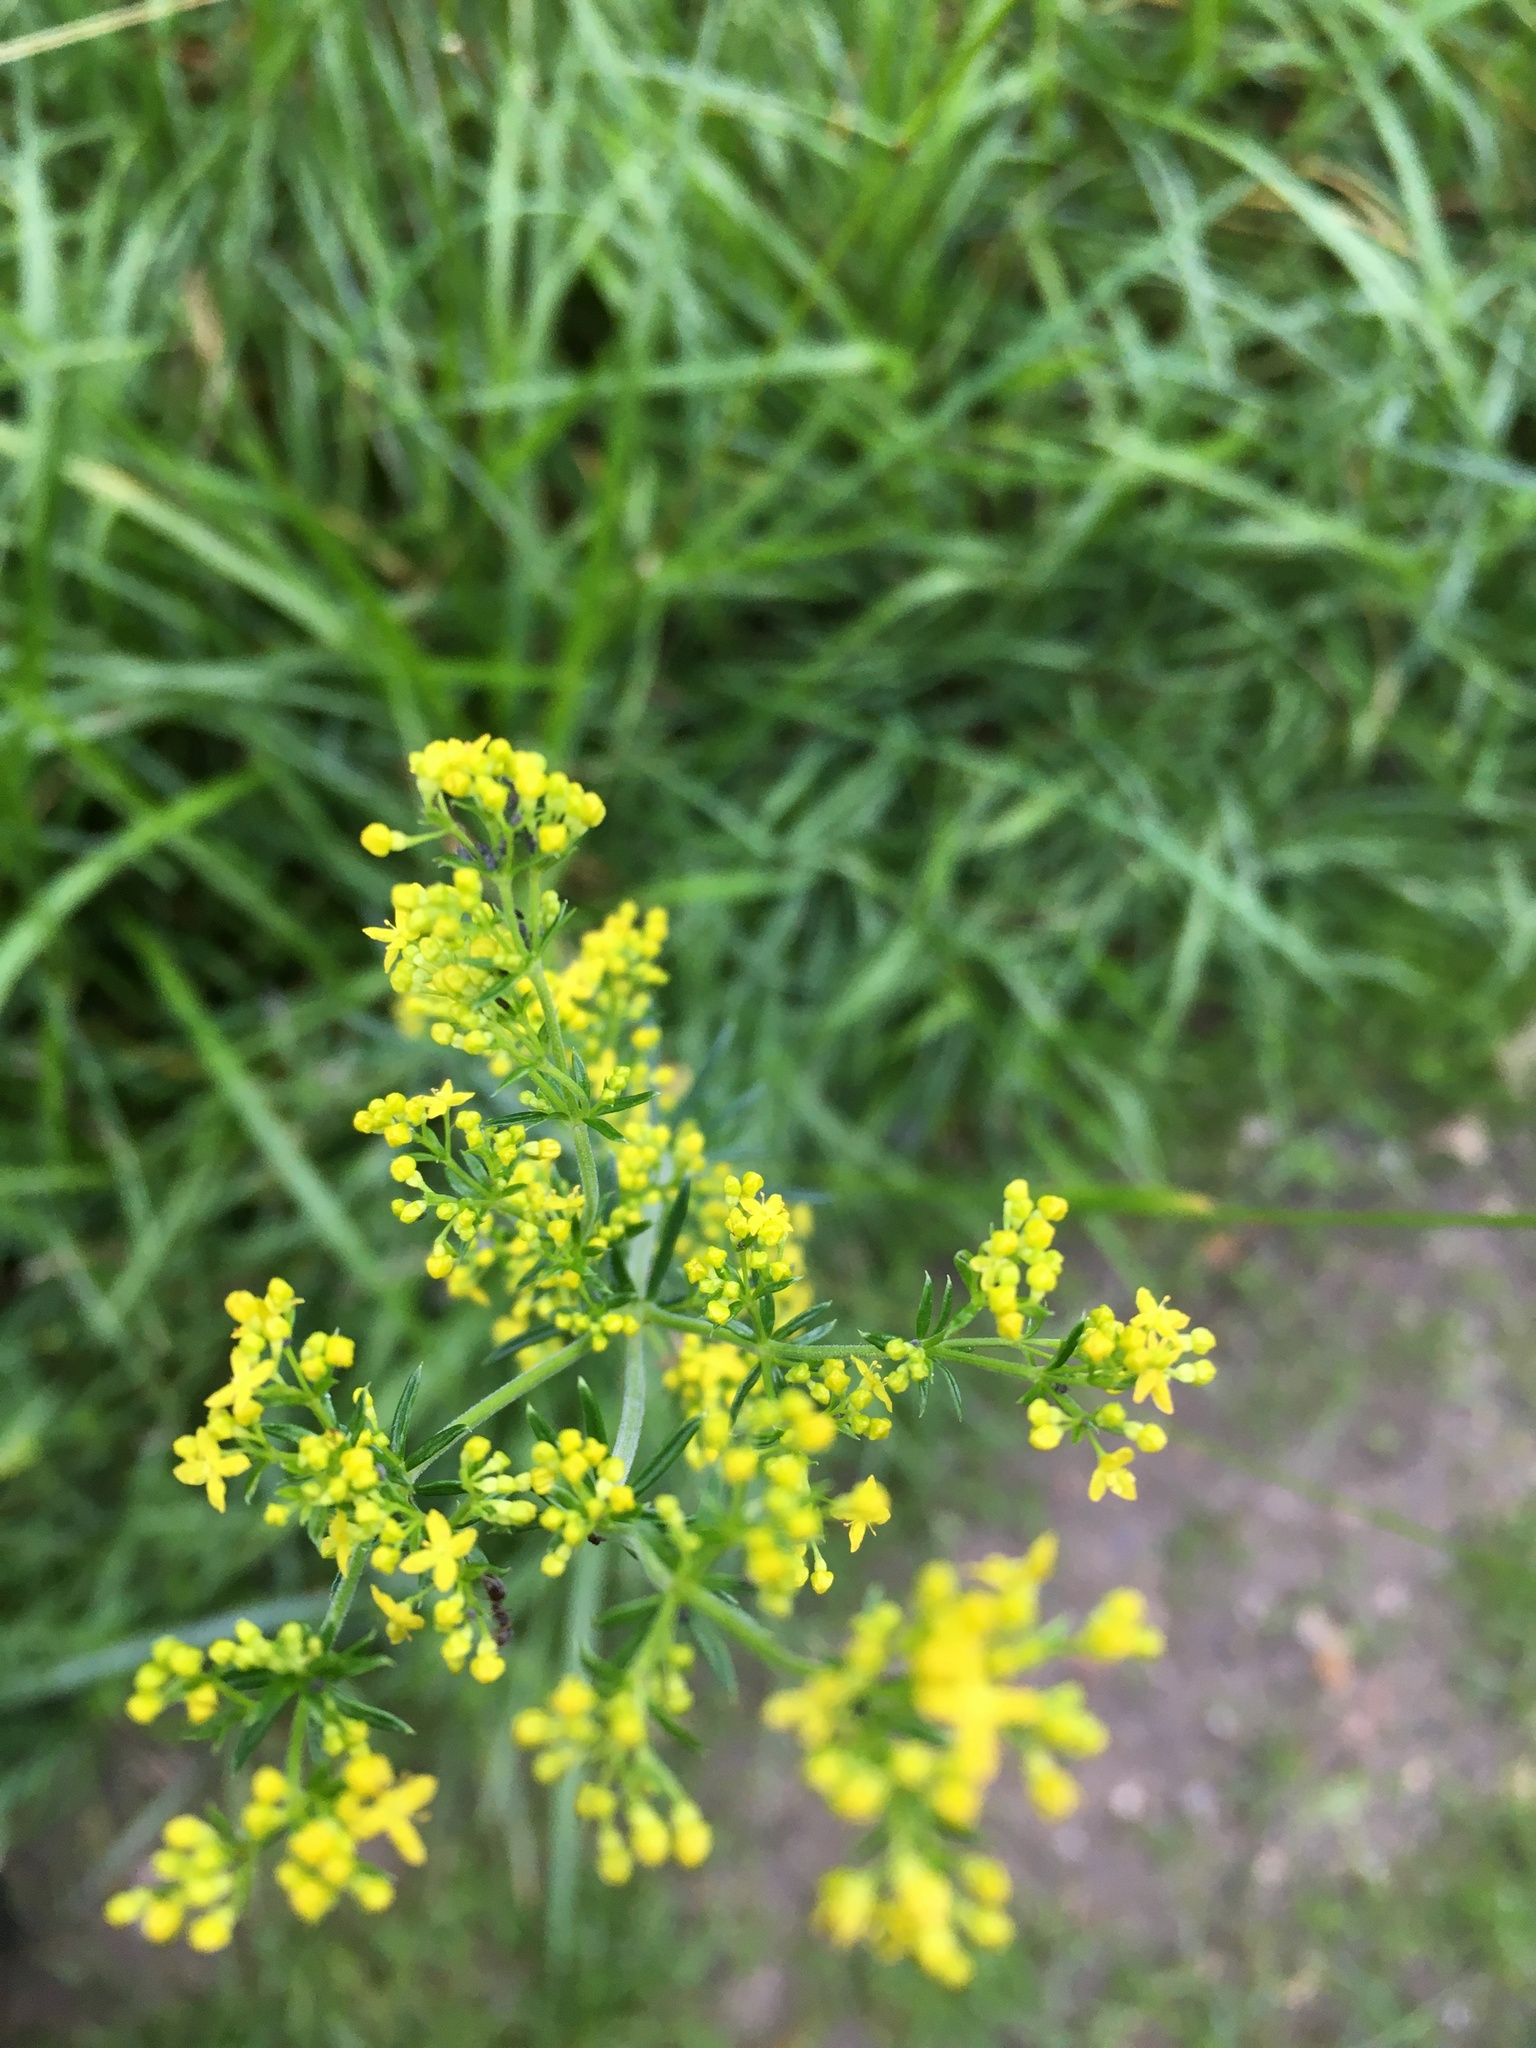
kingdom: Plantae
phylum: Tracheophyta
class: Magnoliopsida
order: Gentianales
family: Rubiaceae
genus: Galium
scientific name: Galium verum
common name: Lady's bedstraw
